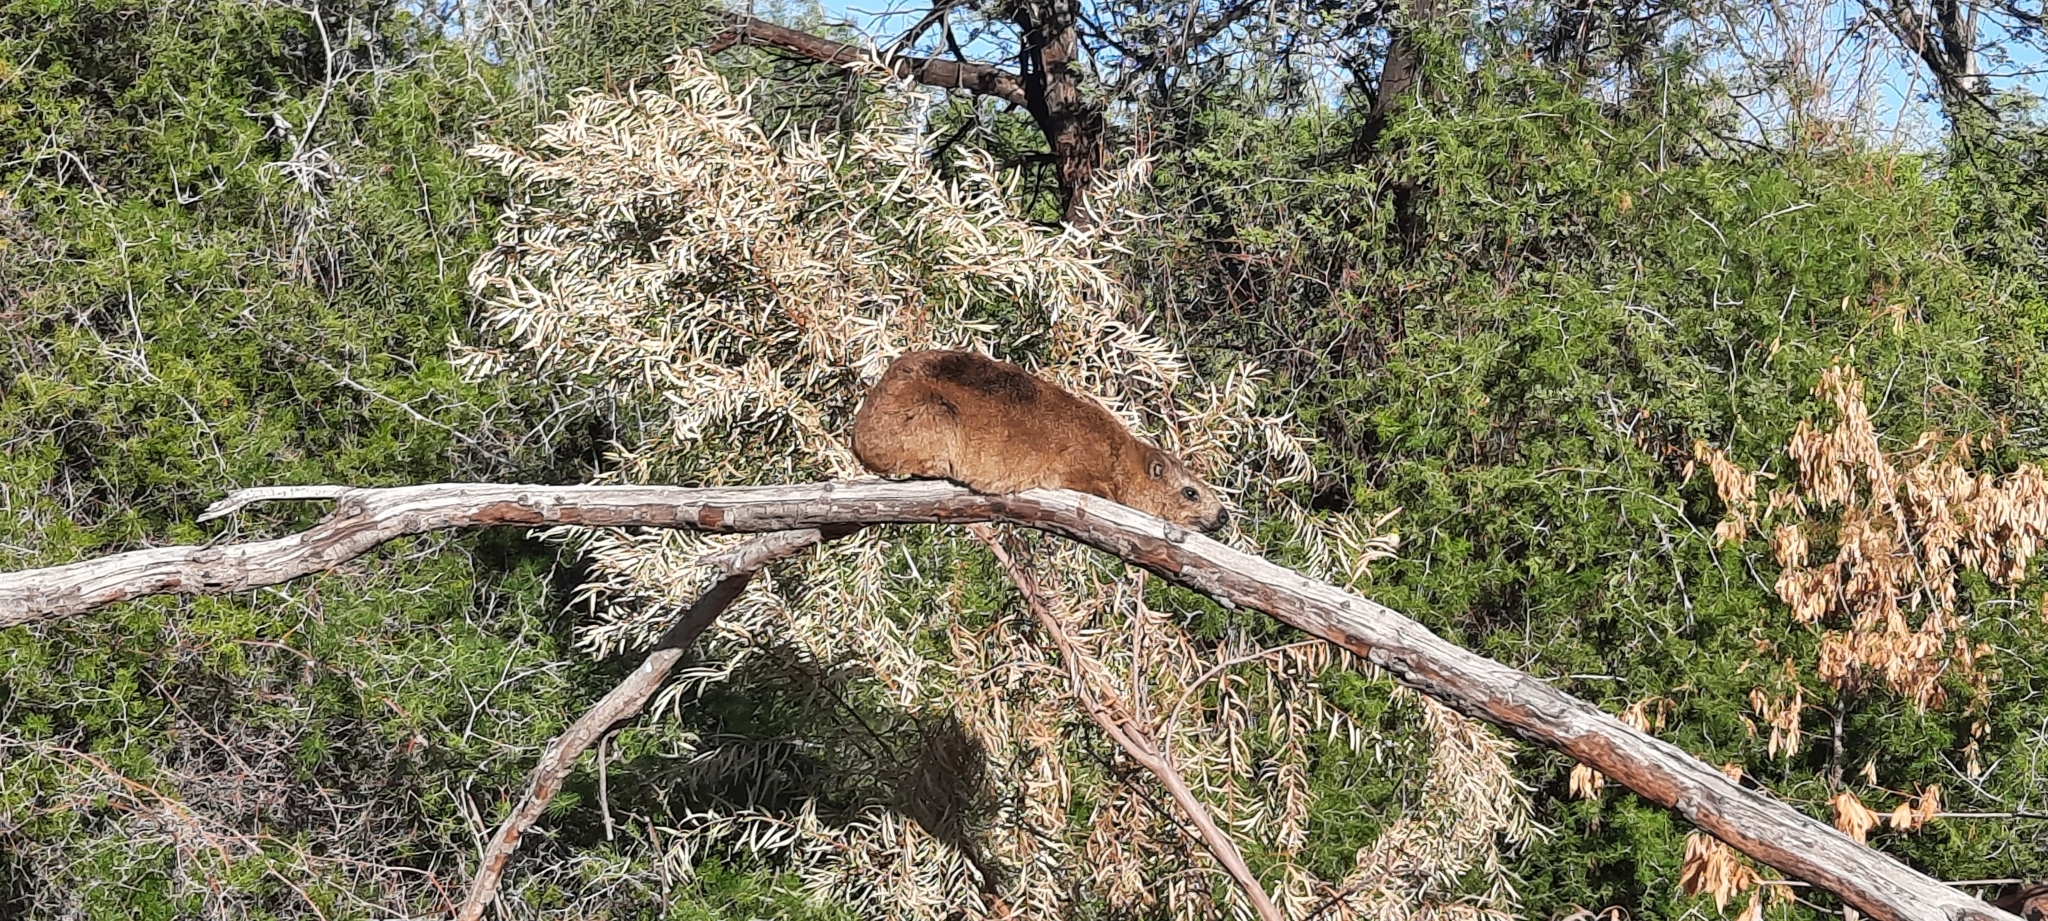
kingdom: Animalia
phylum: Chordata
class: Mammalia
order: Hyracoidea
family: Procaviidae
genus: Procavia
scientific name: Procavia capensis
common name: Rock hyrax
